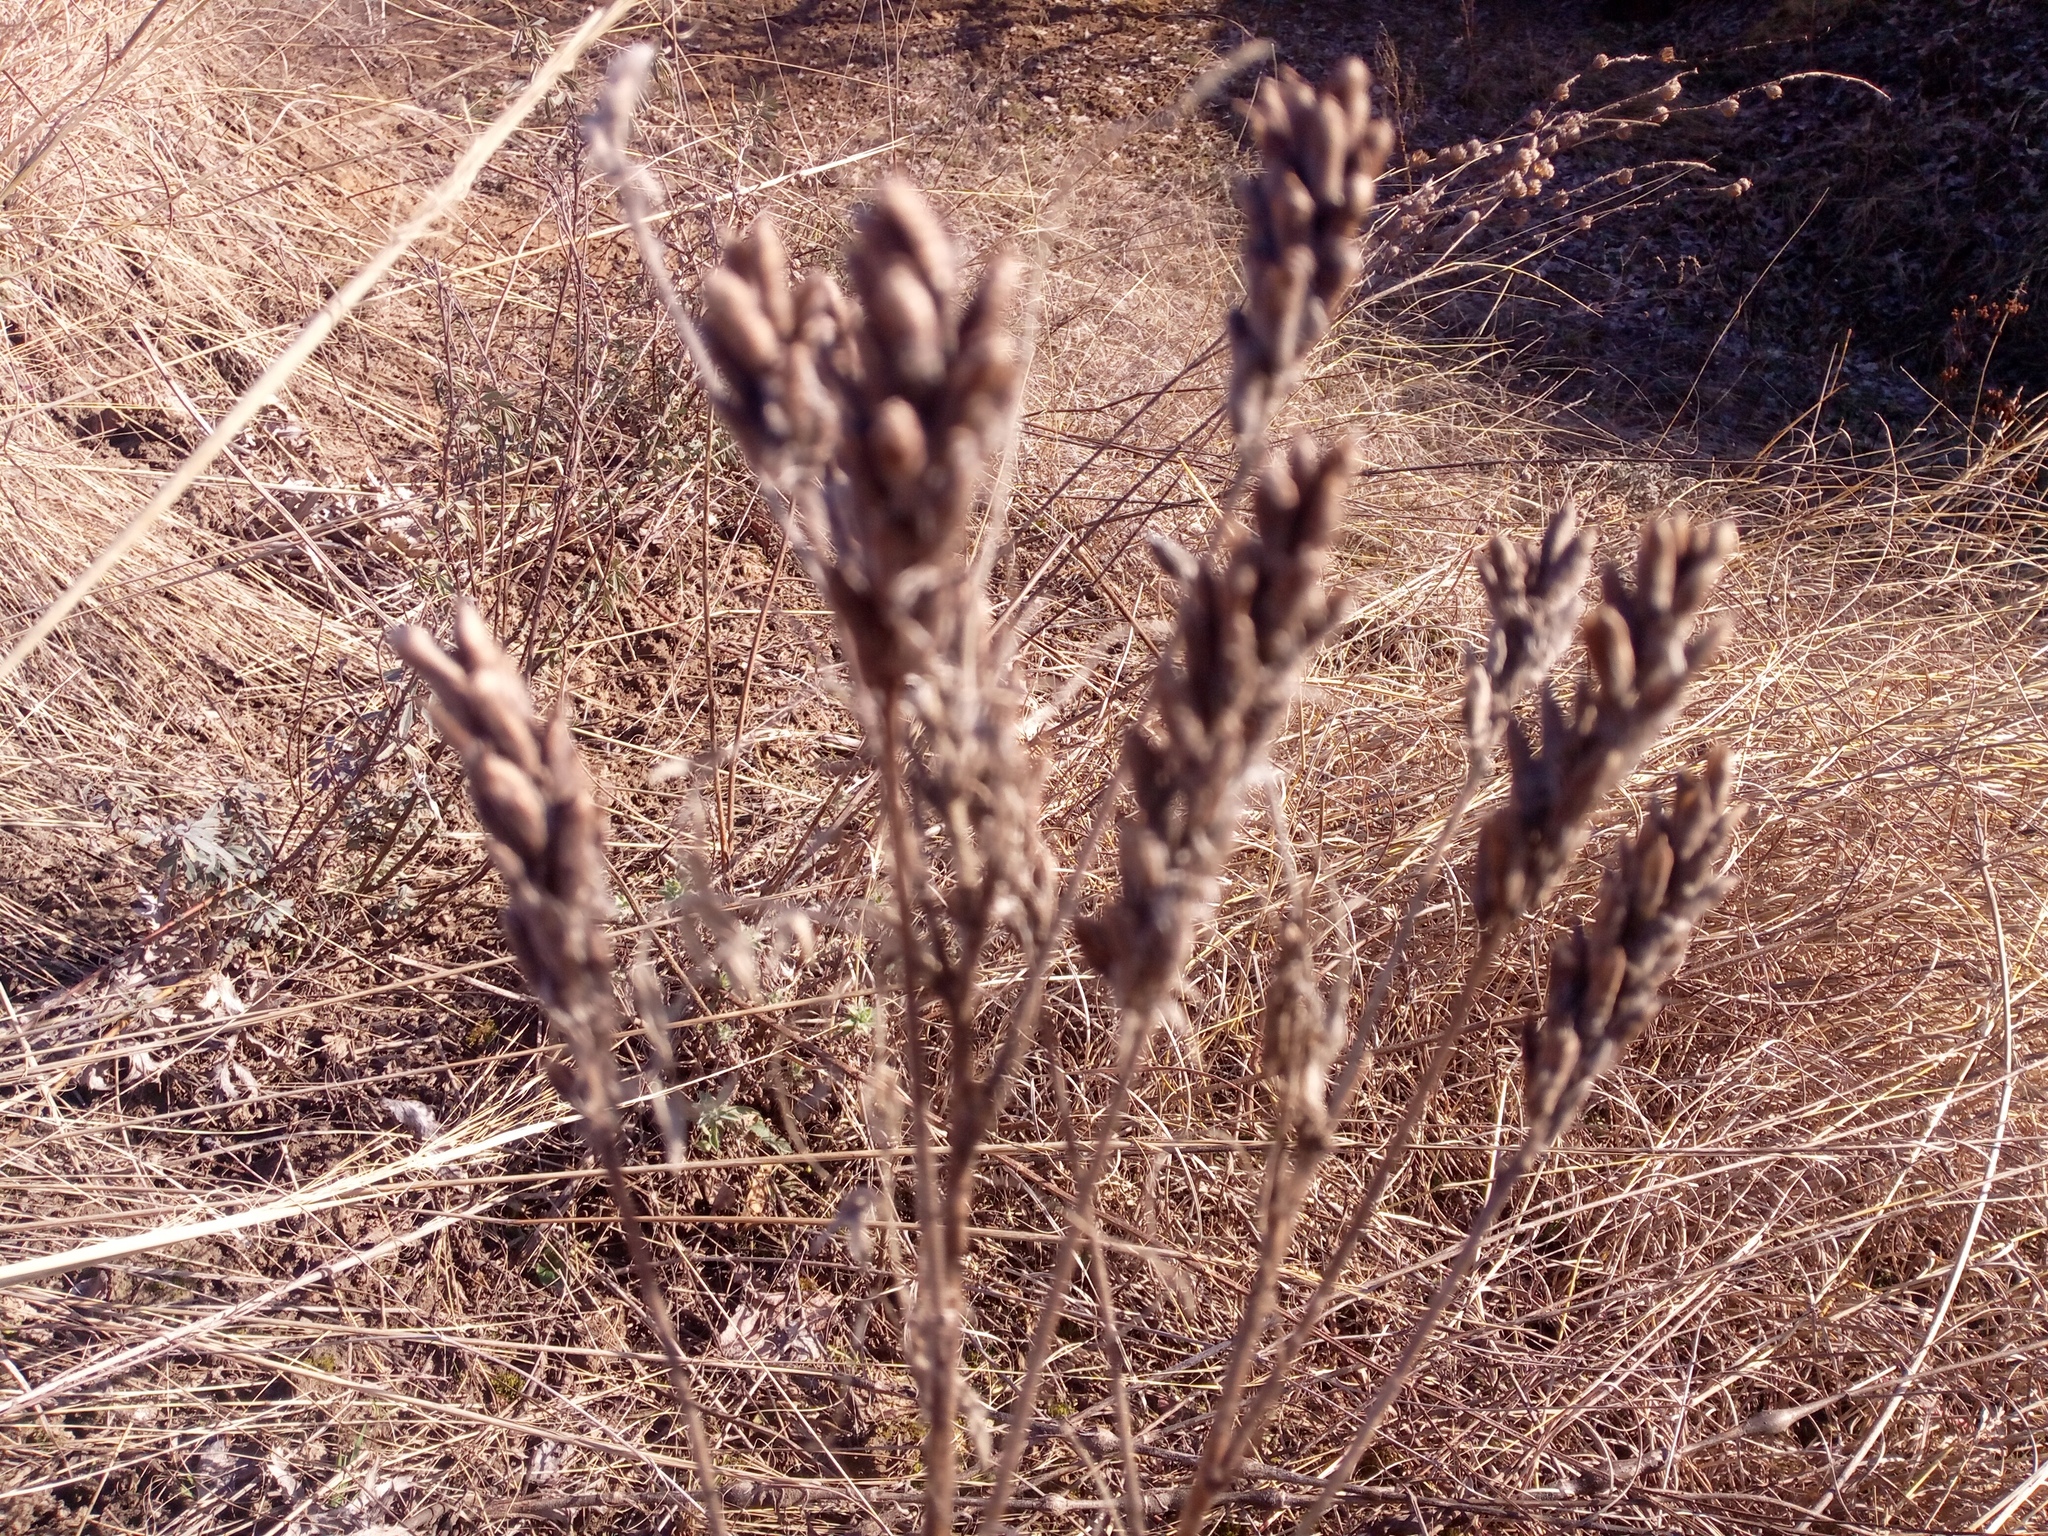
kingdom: Plantae
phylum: Tracheophyta
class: Magnoliopsida
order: Fabales
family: Fabaceae
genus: Oxytropis
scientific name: Oxytropis pilosa
